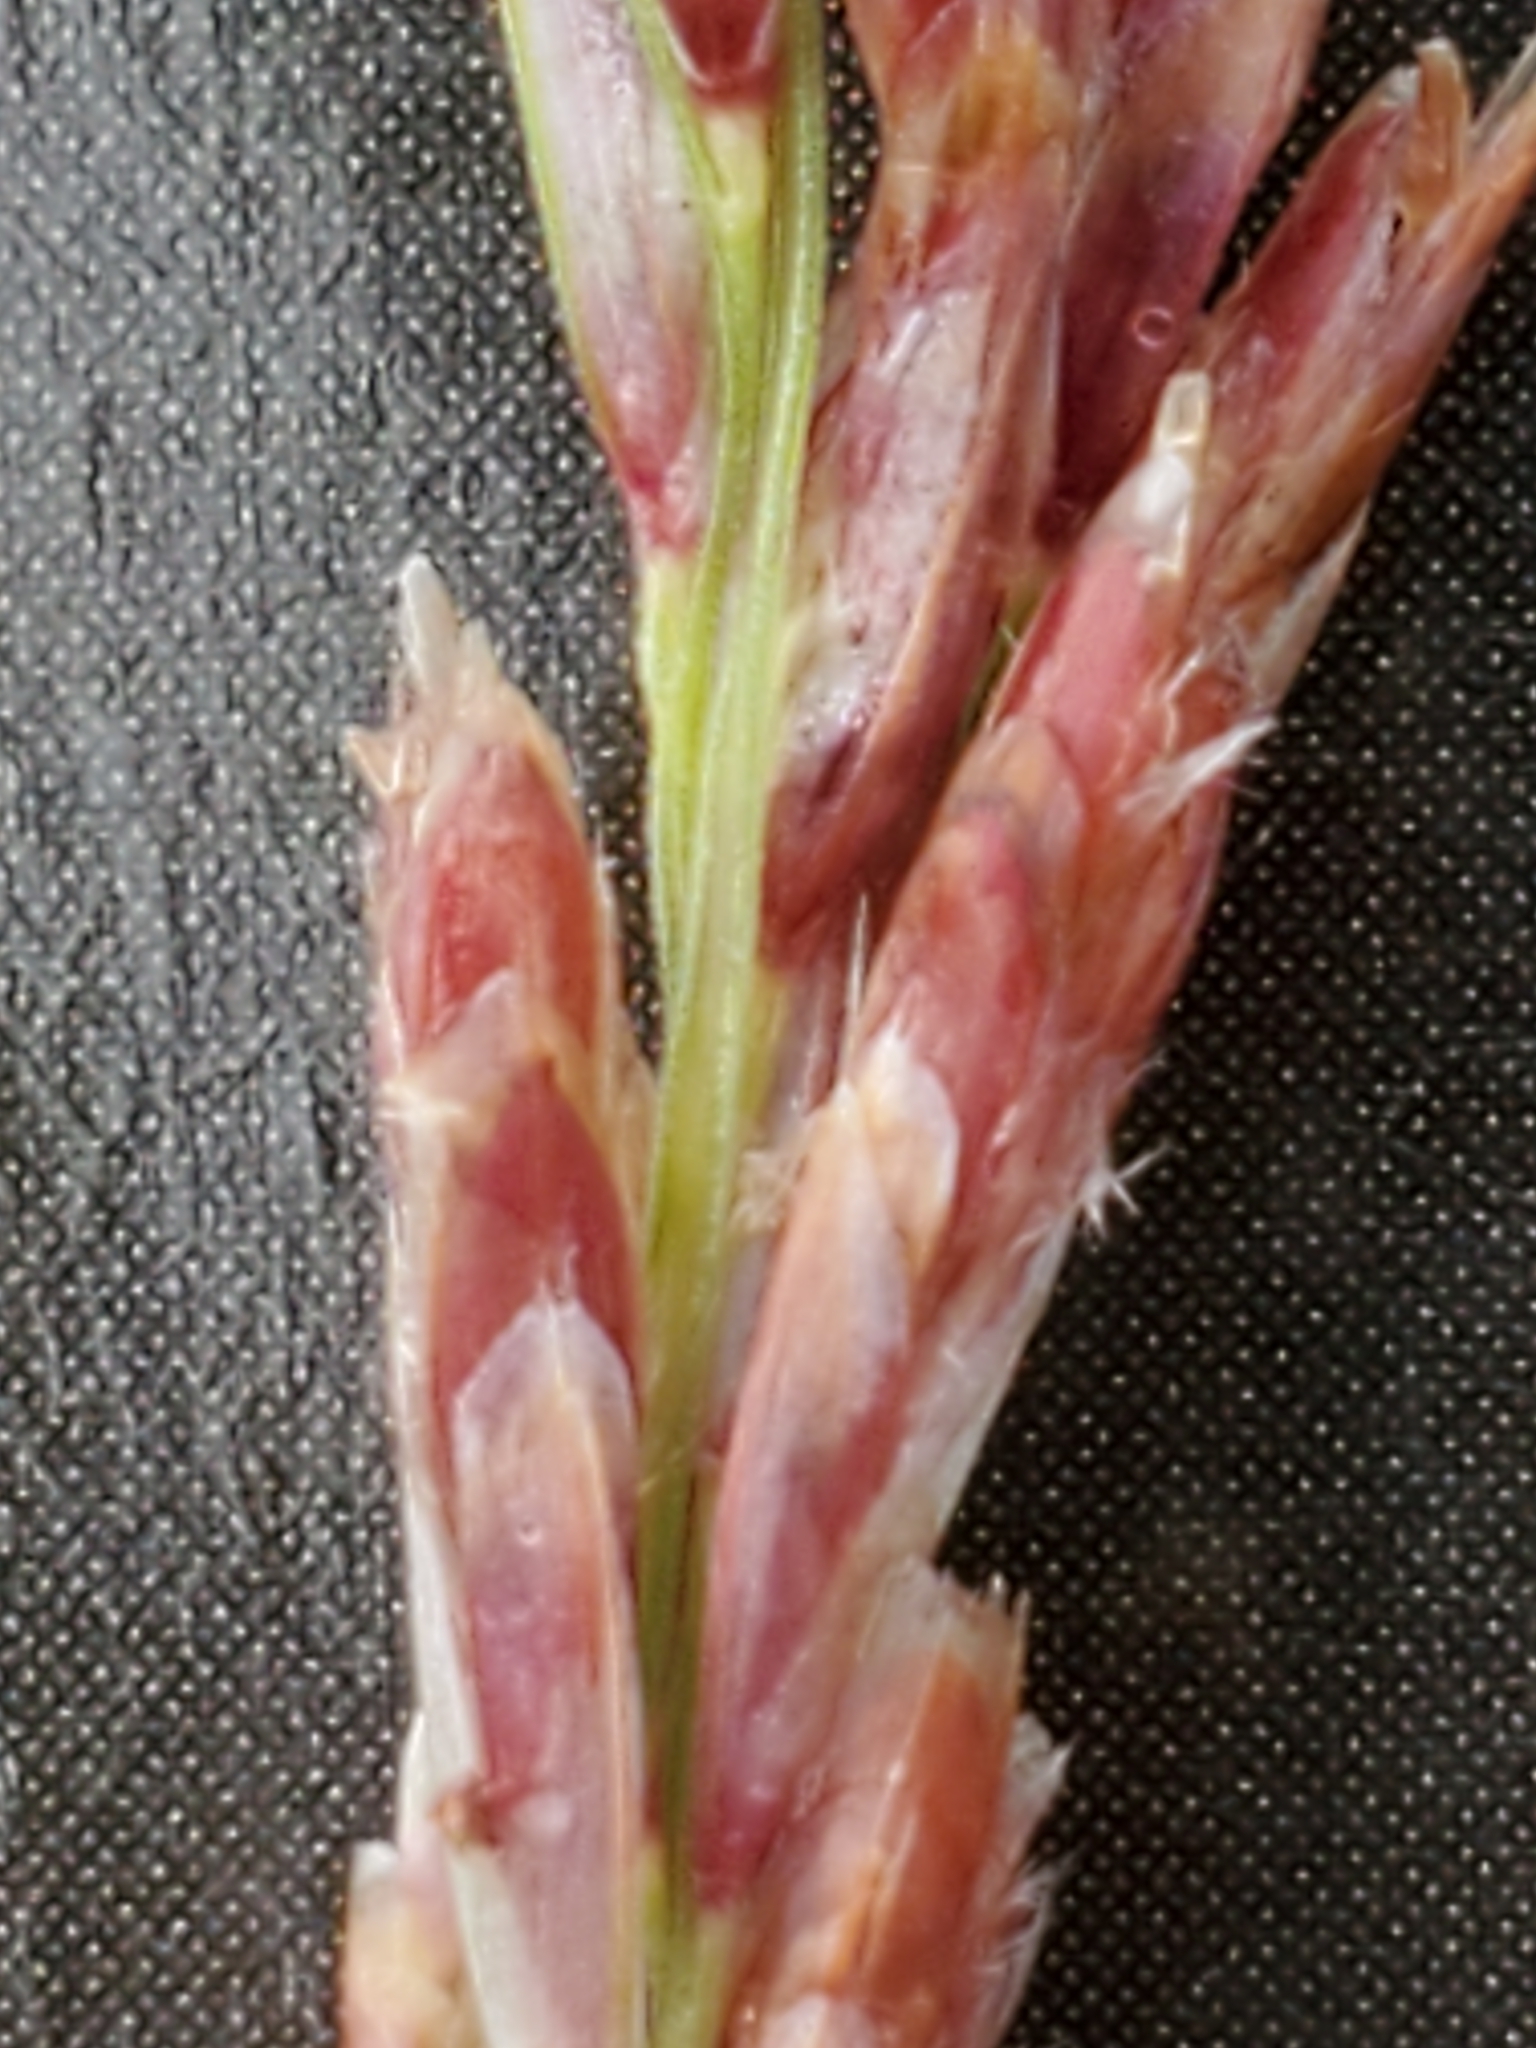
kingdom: Plantae
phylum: Tracheophyta
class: Liliopsida
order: Poales
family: Poaceae
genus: Tridentopsis
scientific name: Tridentopsis mutica
